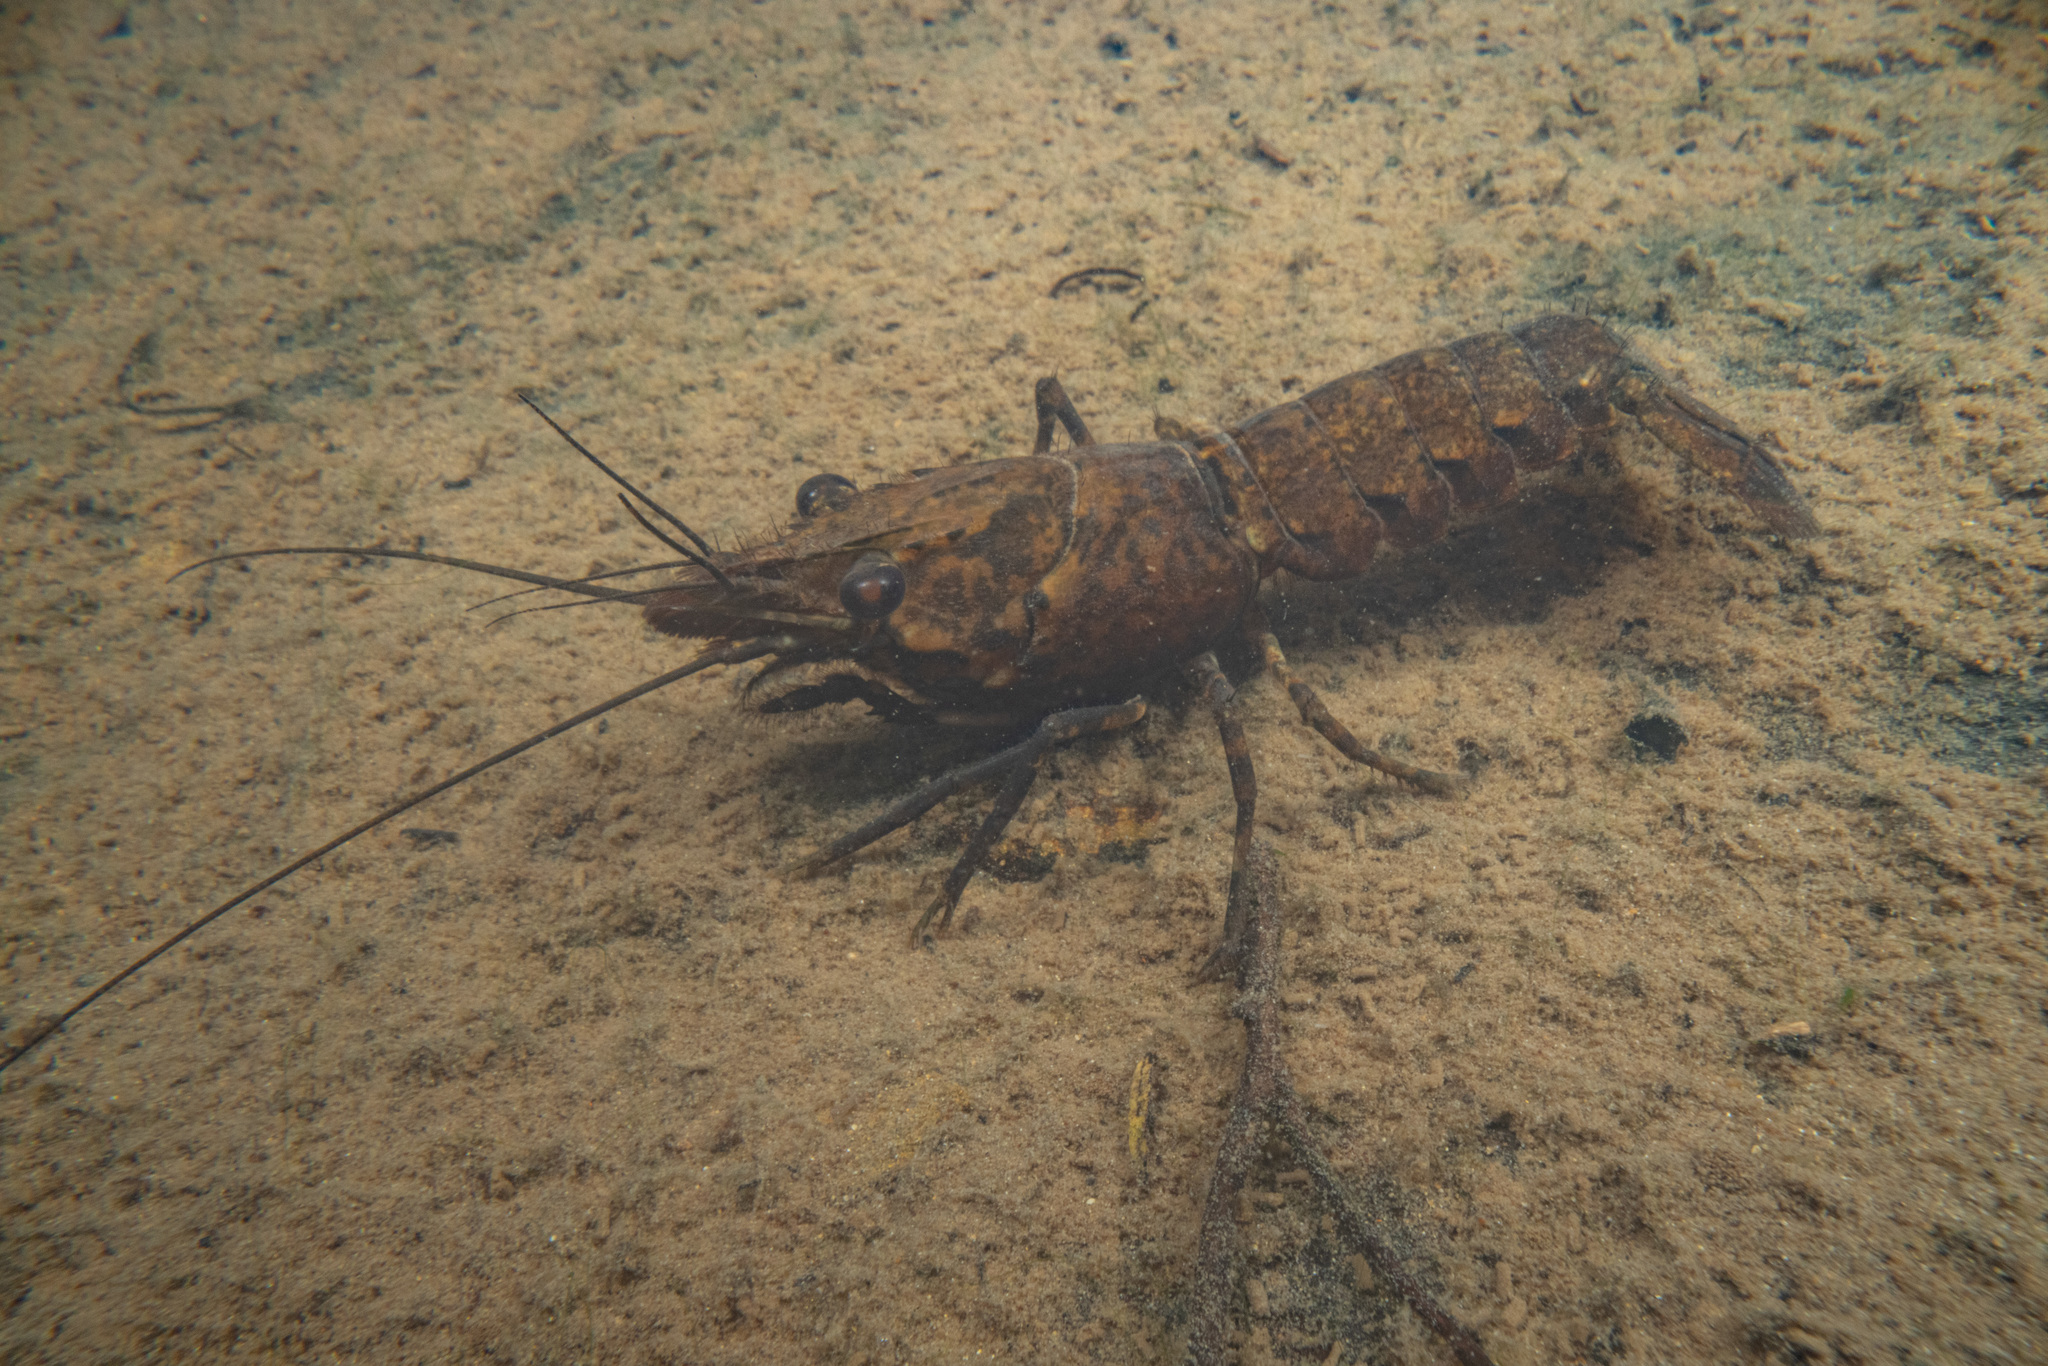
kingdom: Animalia
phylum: Arthropoda
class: Malacostraca
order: Decapoda
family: Parastacidae
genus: Paranephrops
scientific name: Paranephrops planifrons
